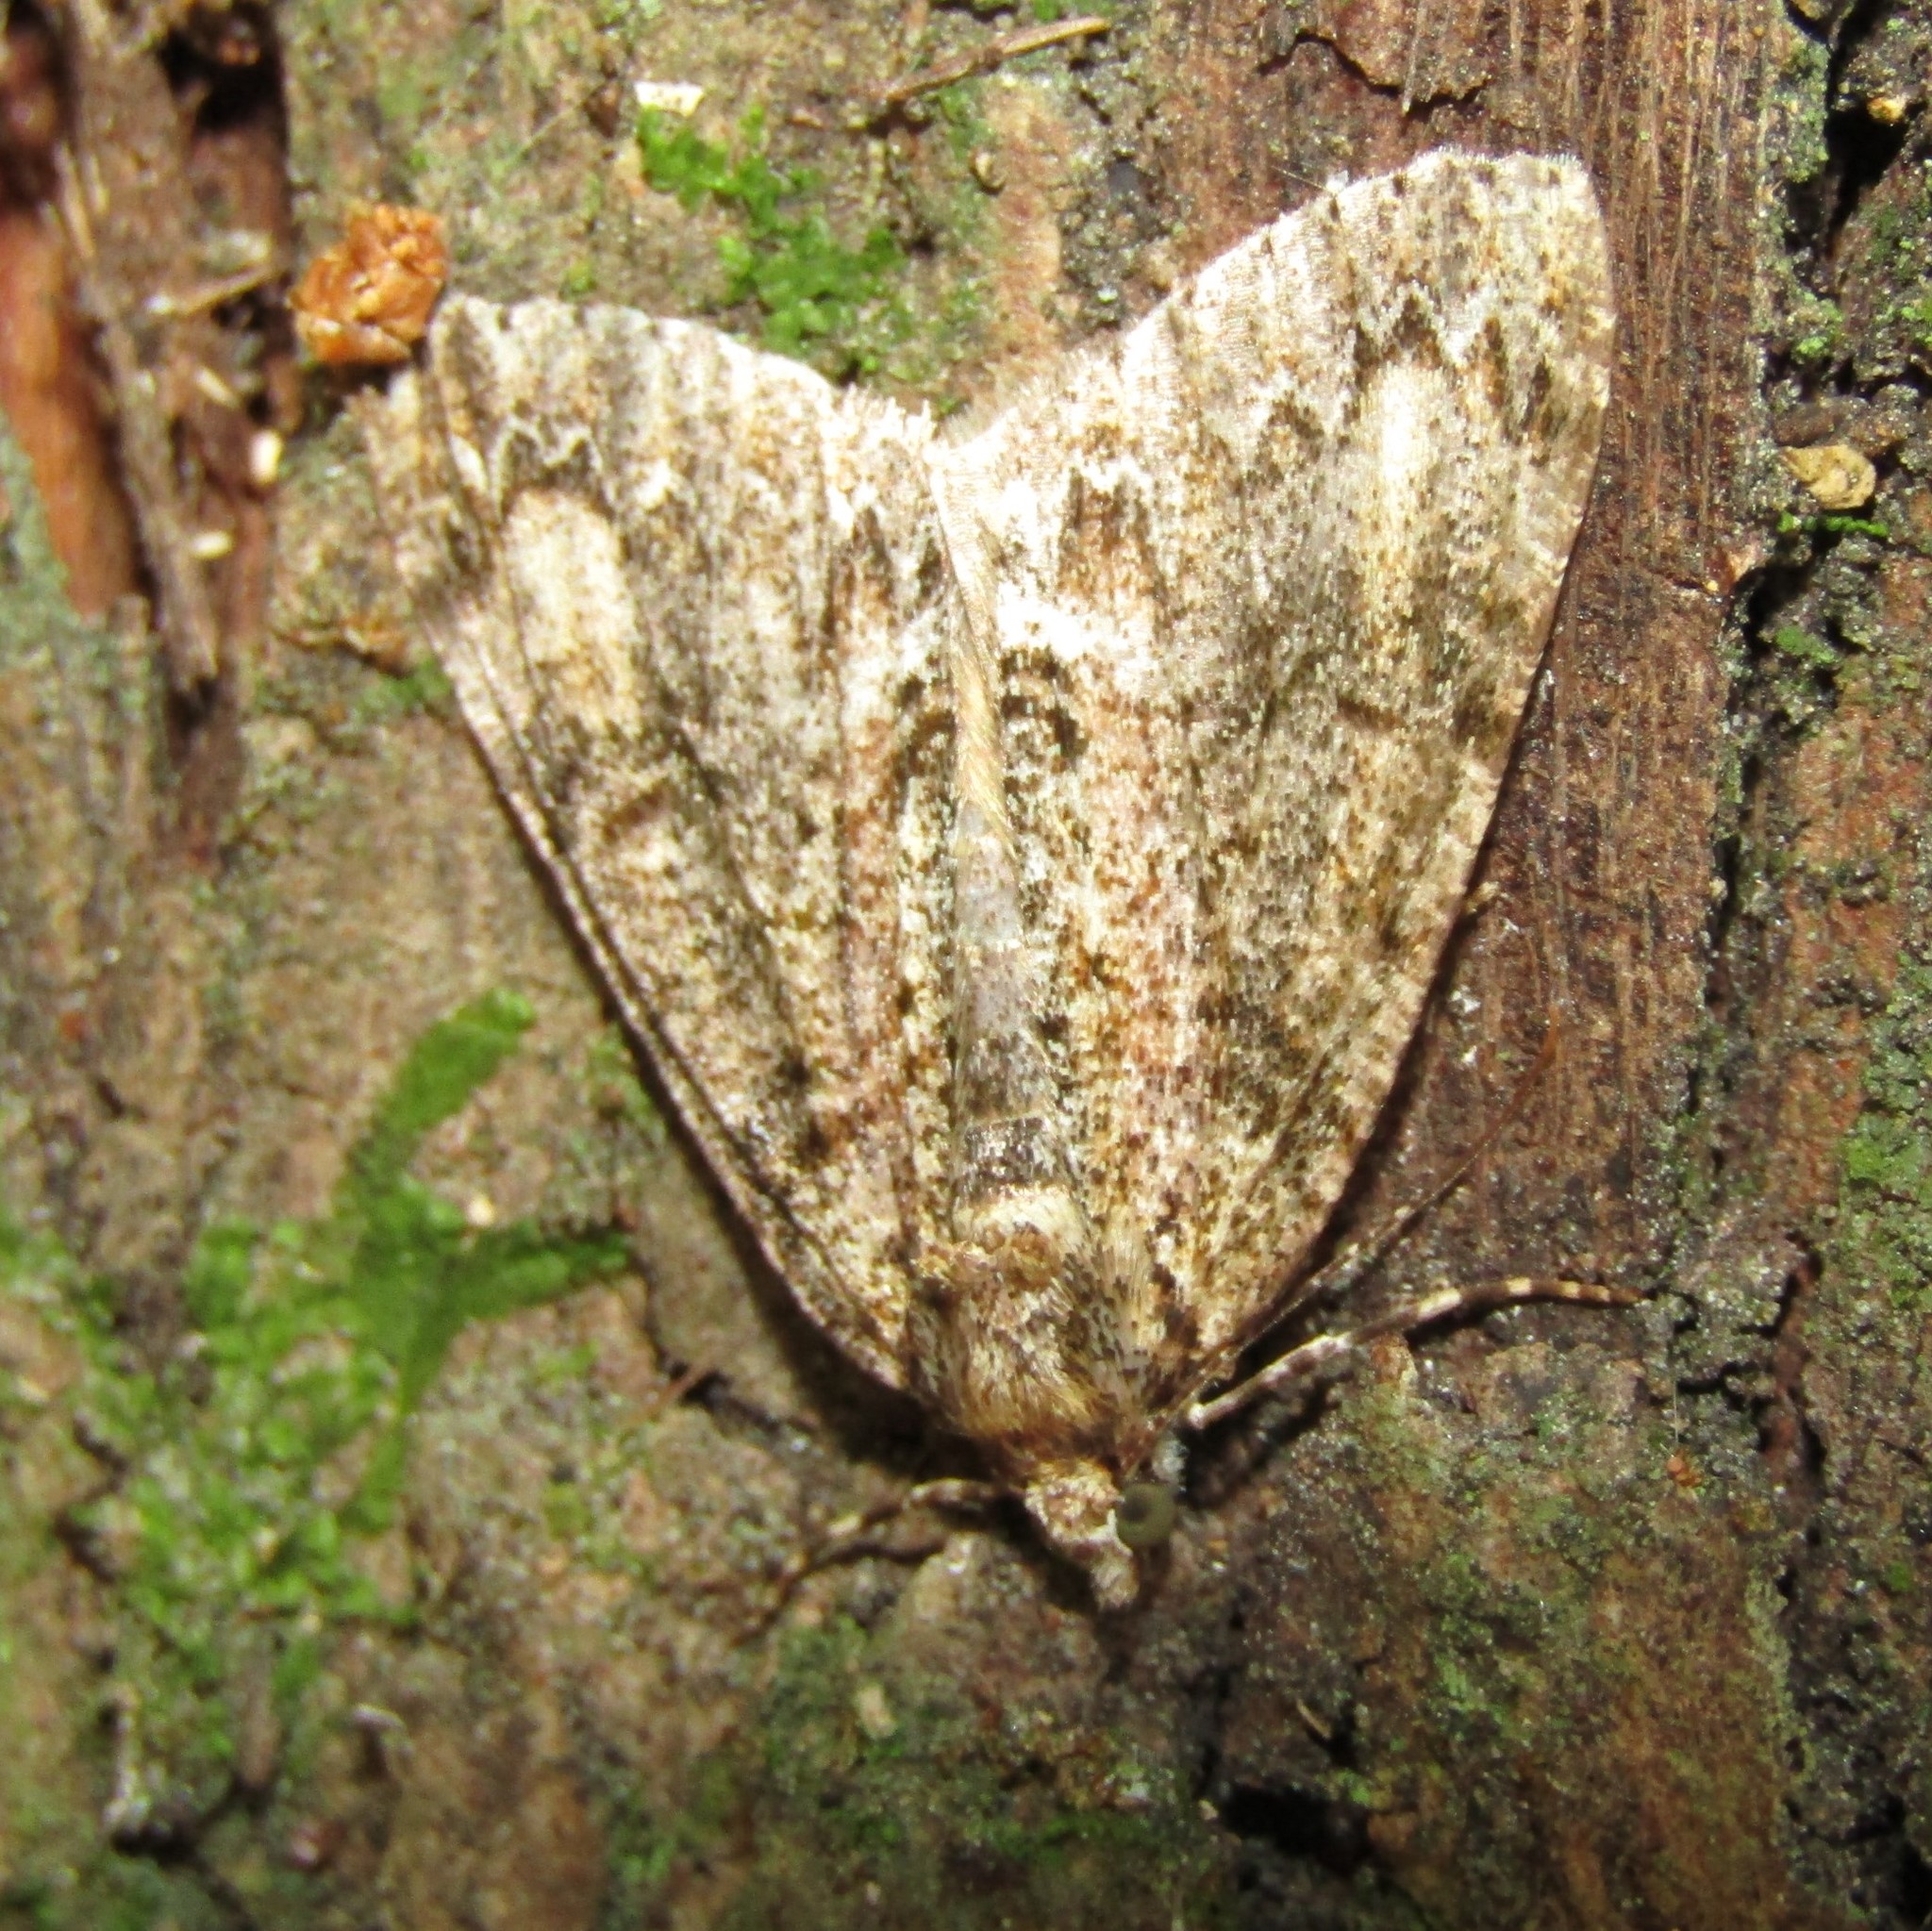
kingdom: Animalia
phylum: Arthropoda
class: Insecta
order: Lepidoptera
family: Geometridae
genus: Pseudocoremia
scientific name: Pseudocoremia suavis
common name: Common forest looper
